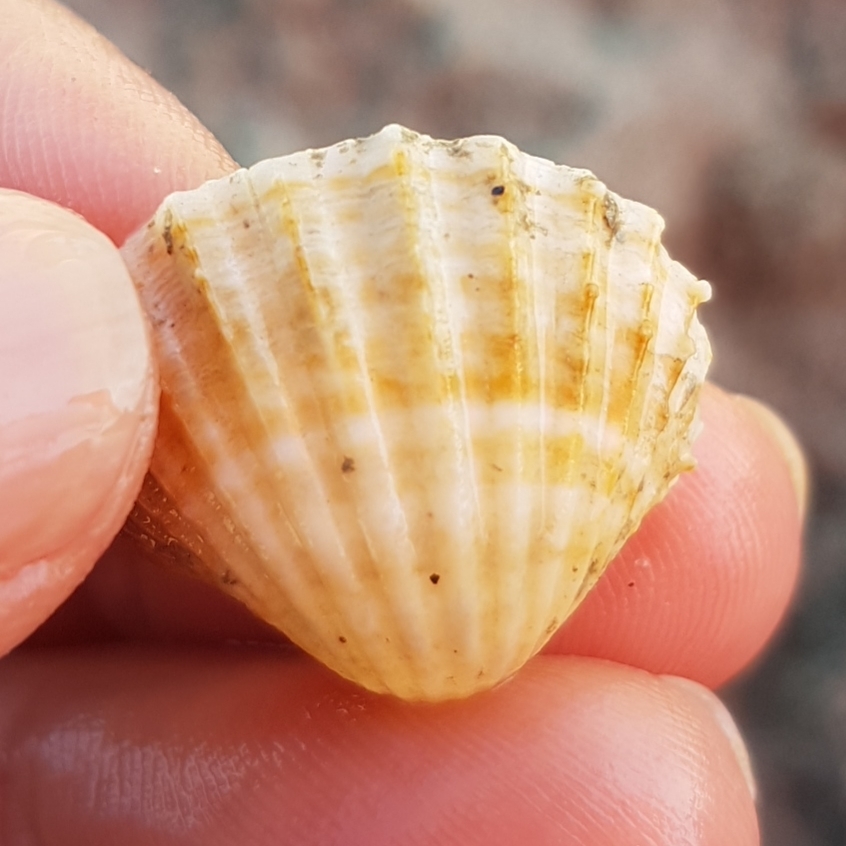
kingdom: Animalia
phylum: Mollusca
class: Bivalvia
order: Cardiida
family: Cardiidae
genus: Acanthocardia
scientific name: Acanthocardia paucicostata
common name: Poorly ribbed cockle
